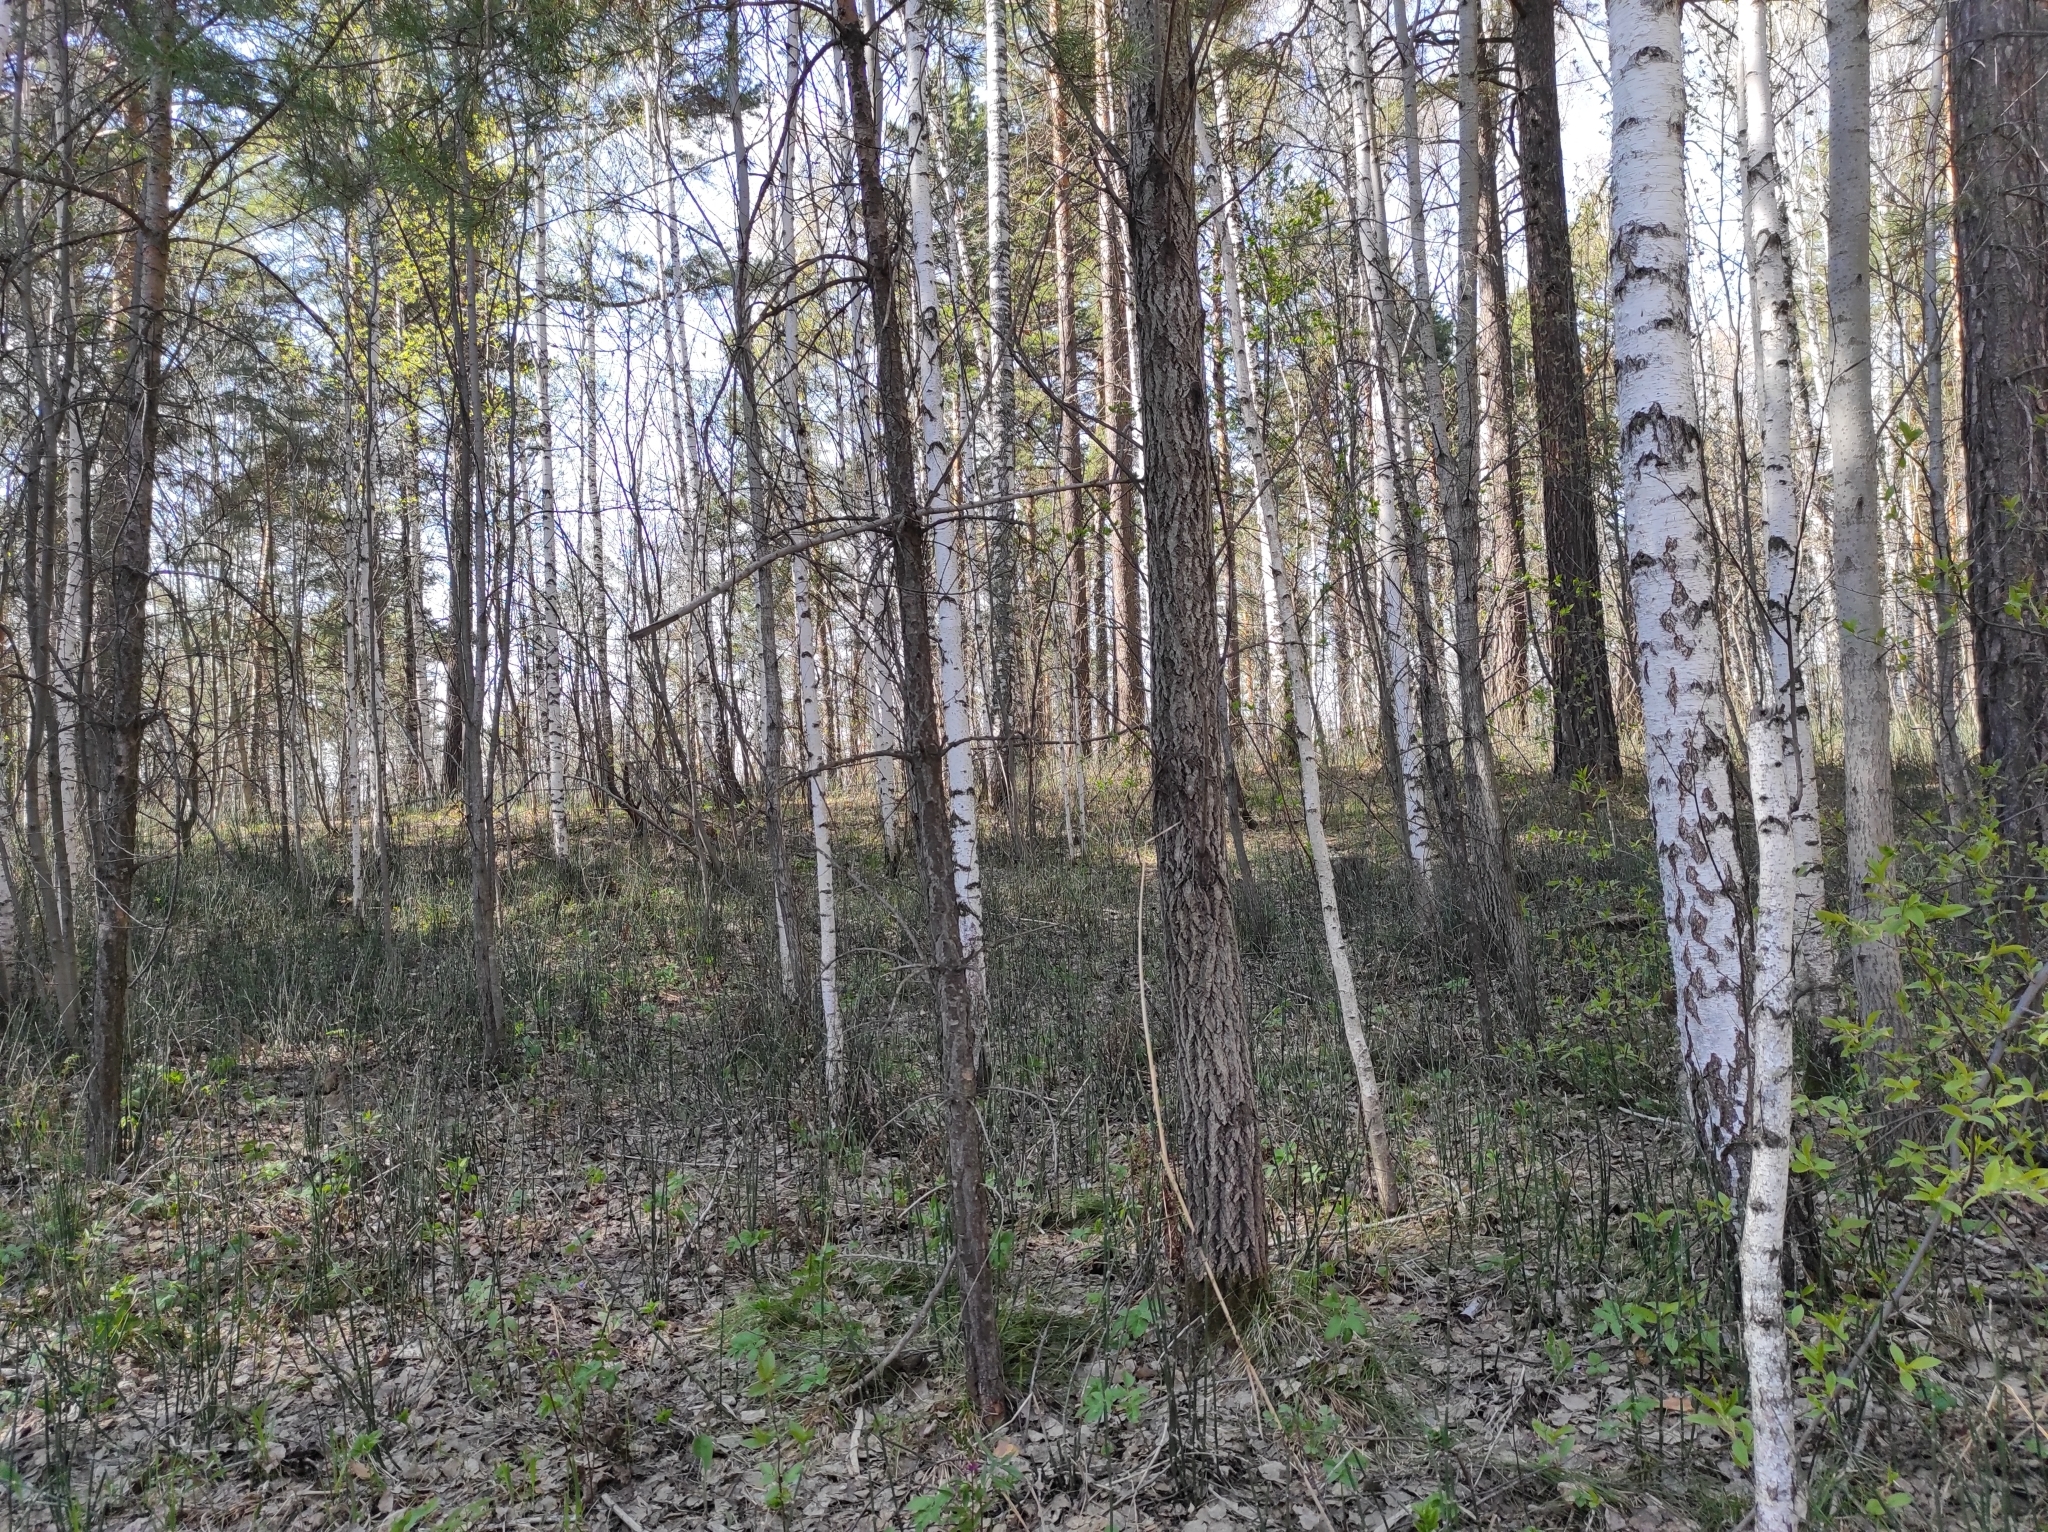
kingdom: Plantae
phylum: Tracheophyta
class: Polypodiopsida
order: Equisetales
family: Equisetaceae
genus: Equisetum
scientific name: Equisetum hyemale
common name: Rough horsetail
